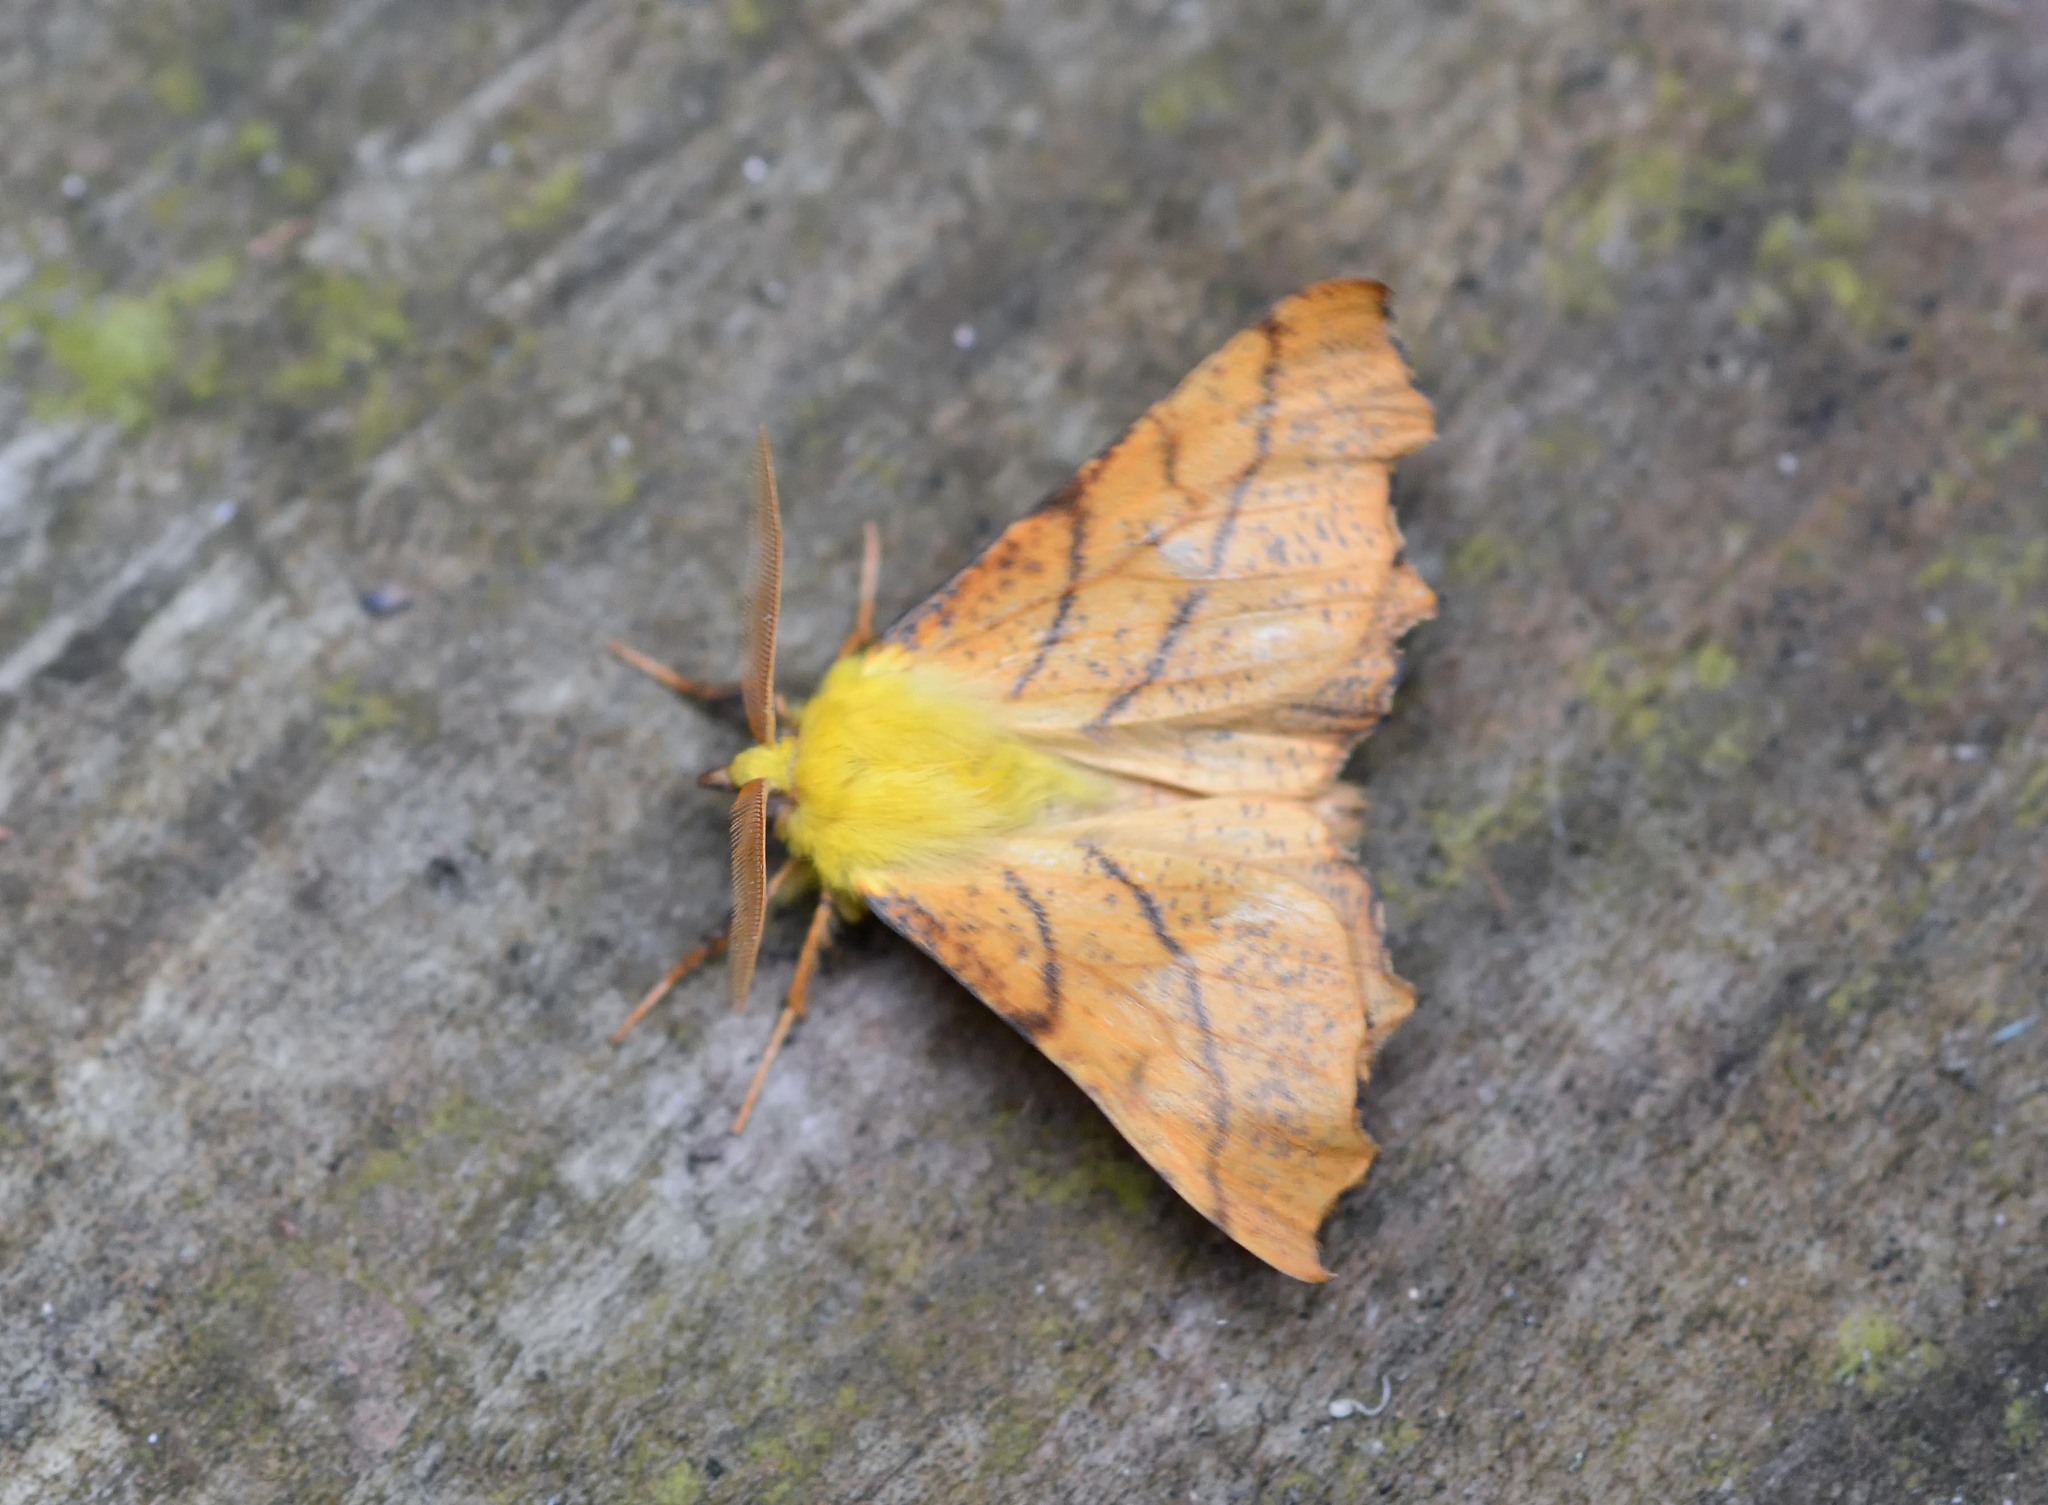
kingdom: Animalia
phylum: Arthropoda
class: Insecta
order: Lepidoptera
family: Geometridae
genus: Ennomos
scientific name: Ennomos alniaria
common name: Canary-shouldered thorn
